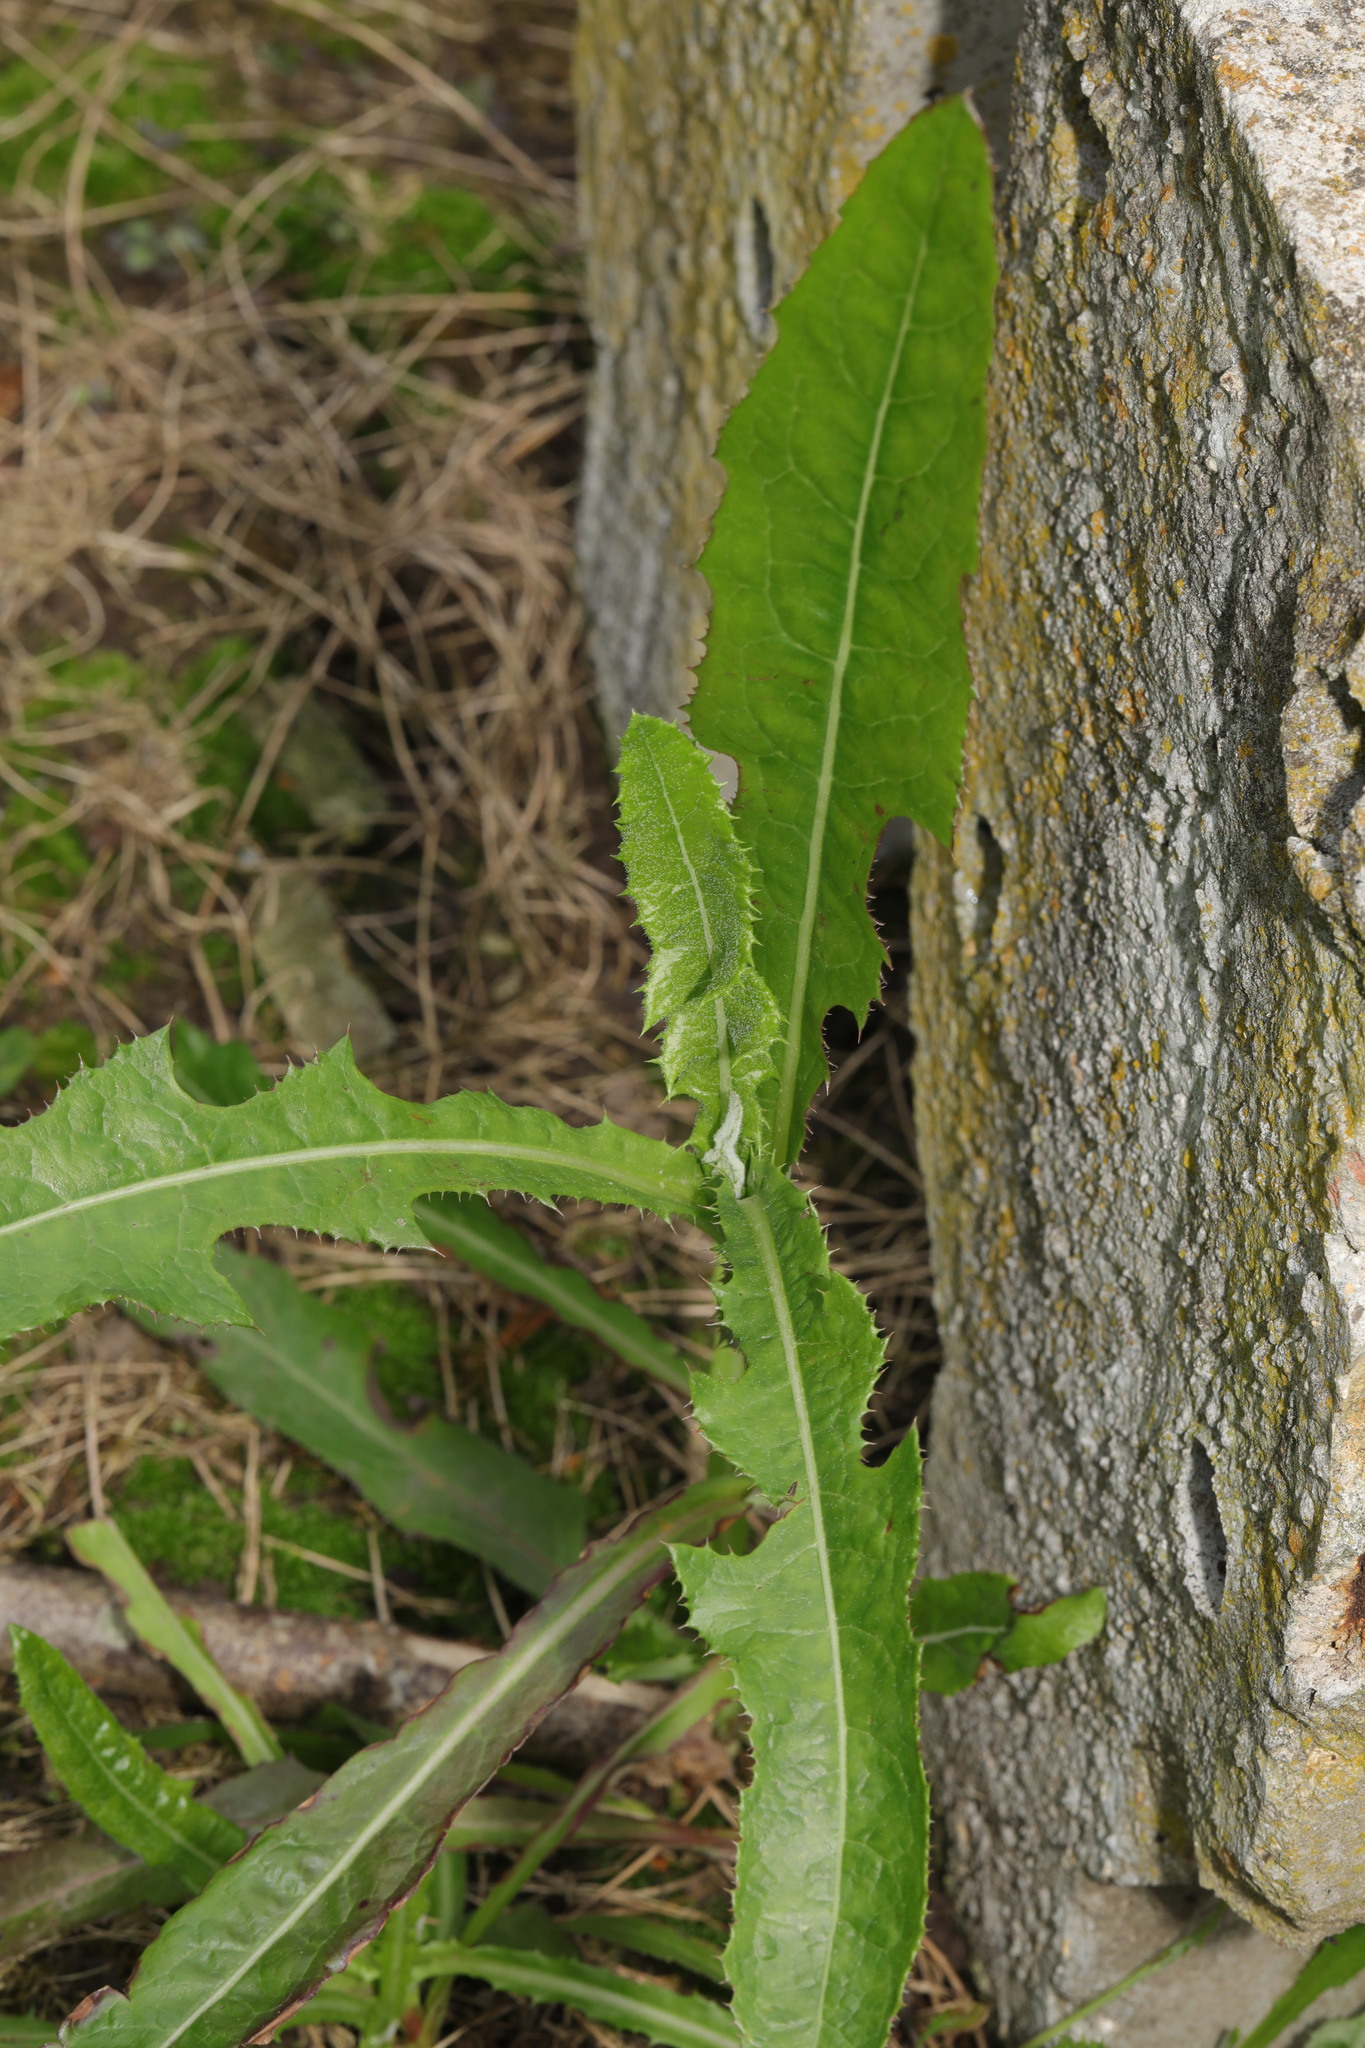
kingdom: Plantae
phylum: Tracheophyta
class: Magnoliopsida
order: Asterales
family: Asteraceae
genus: Sonchus
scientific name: Sonchus arvensis
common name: Perennial sow-thistle
